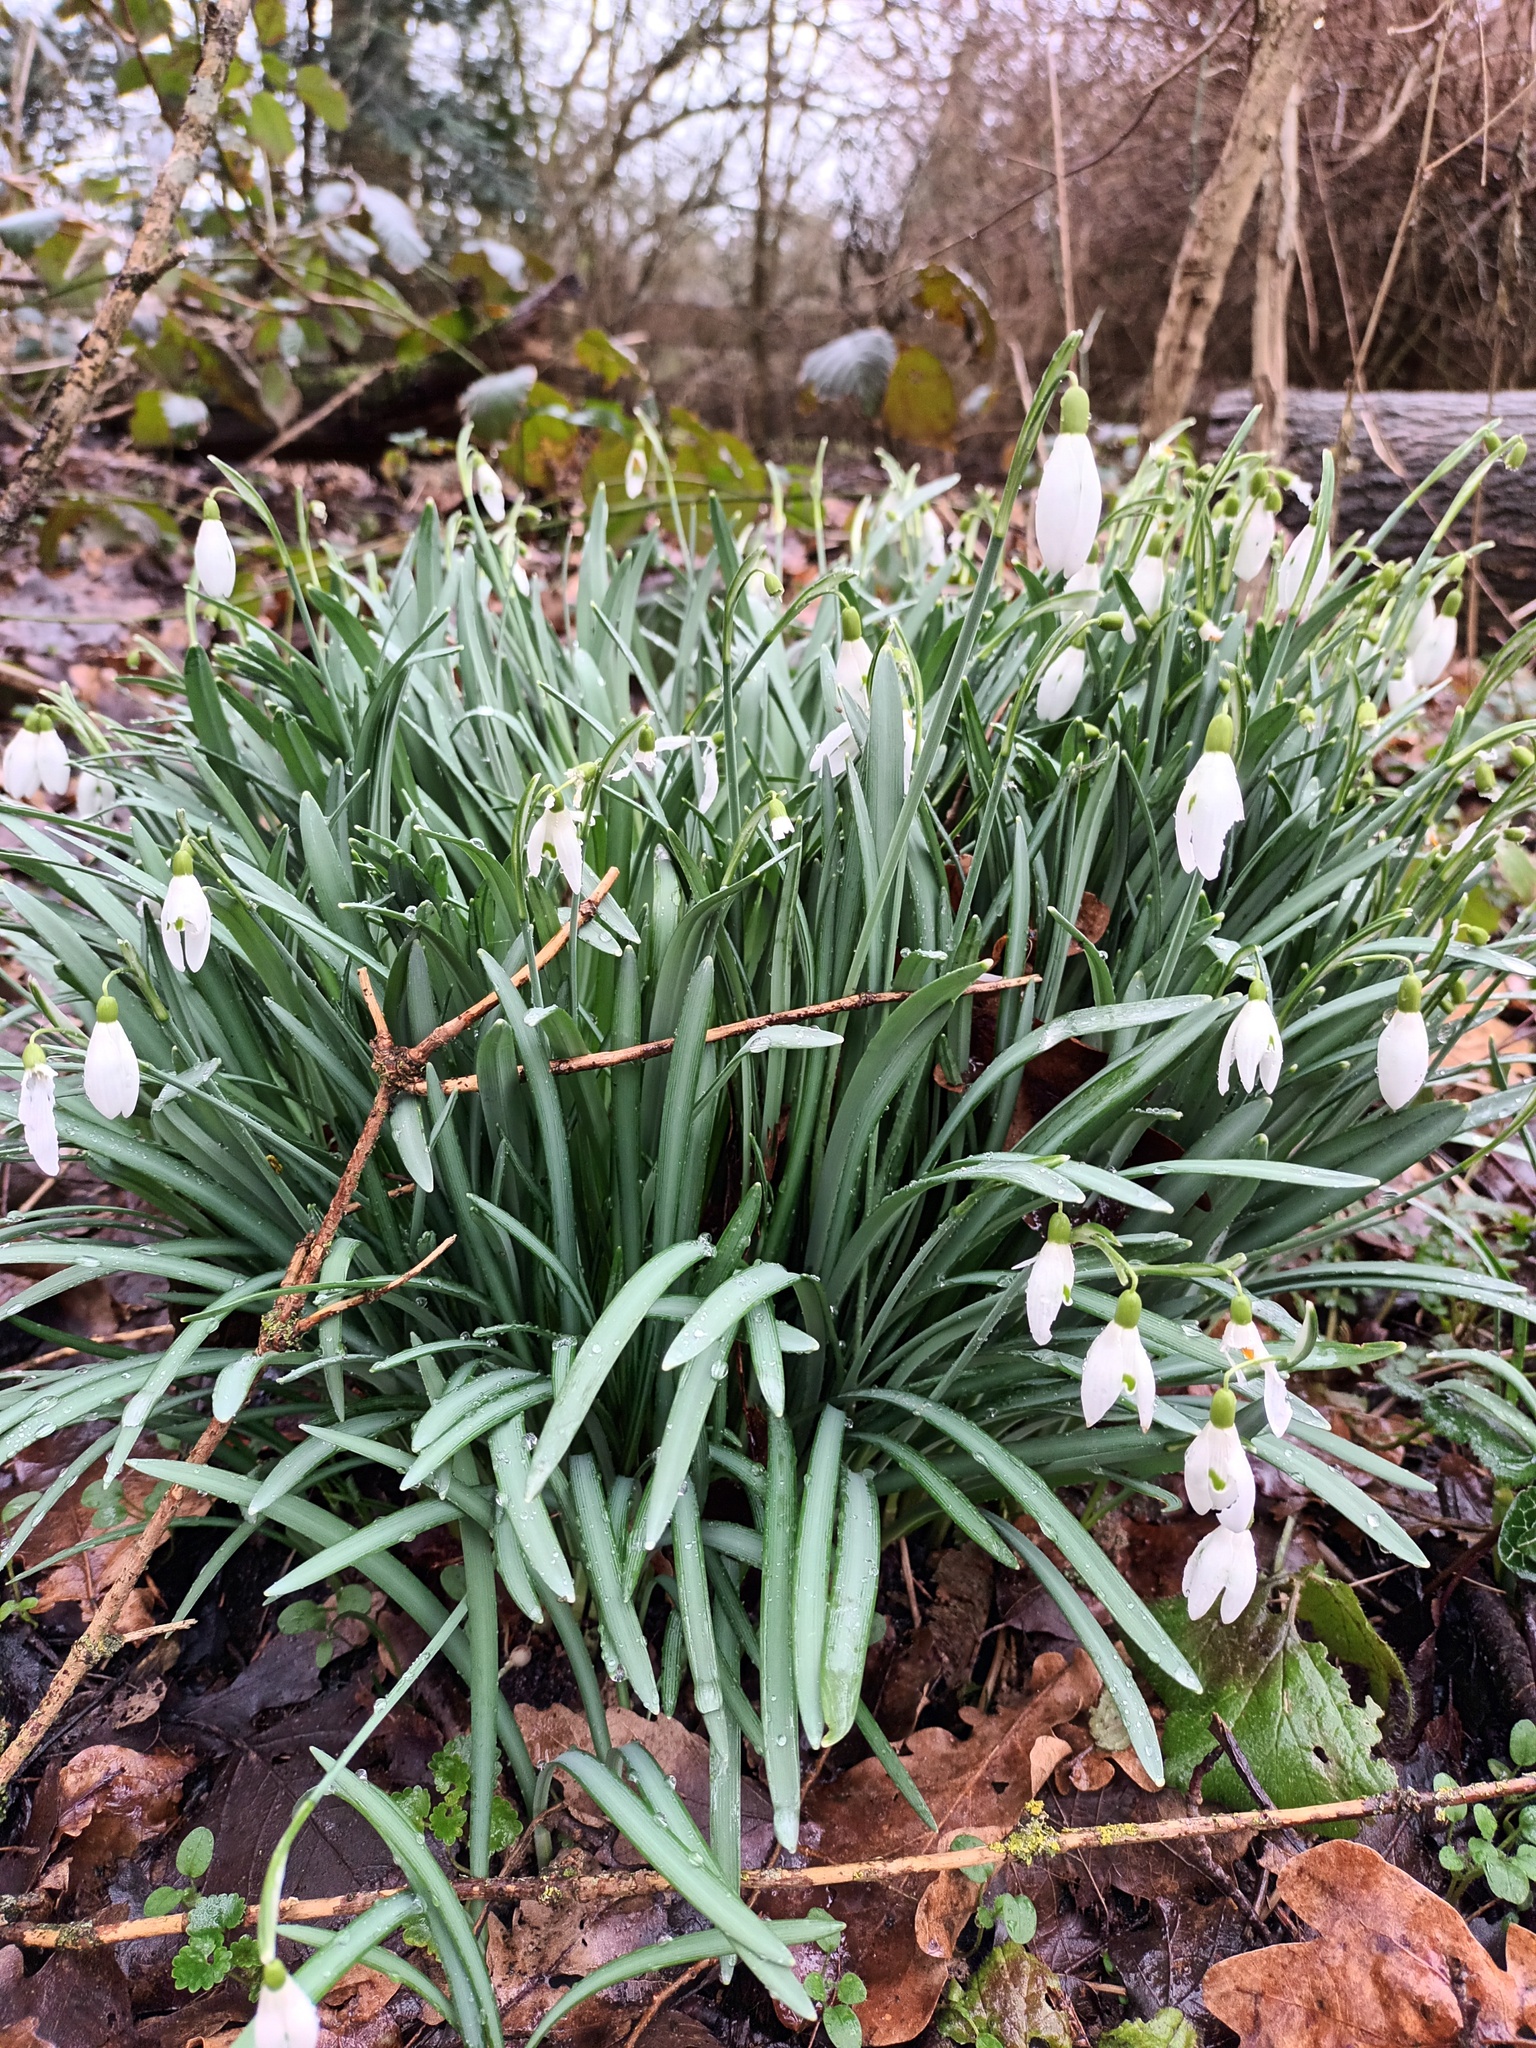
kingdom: Plantae
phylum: Tracheophyta
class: Liliopsida
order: Asparagales
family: Amaryllidaceae
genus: Galanthus
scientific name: Galanthus nivalis
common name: Snowdrop
